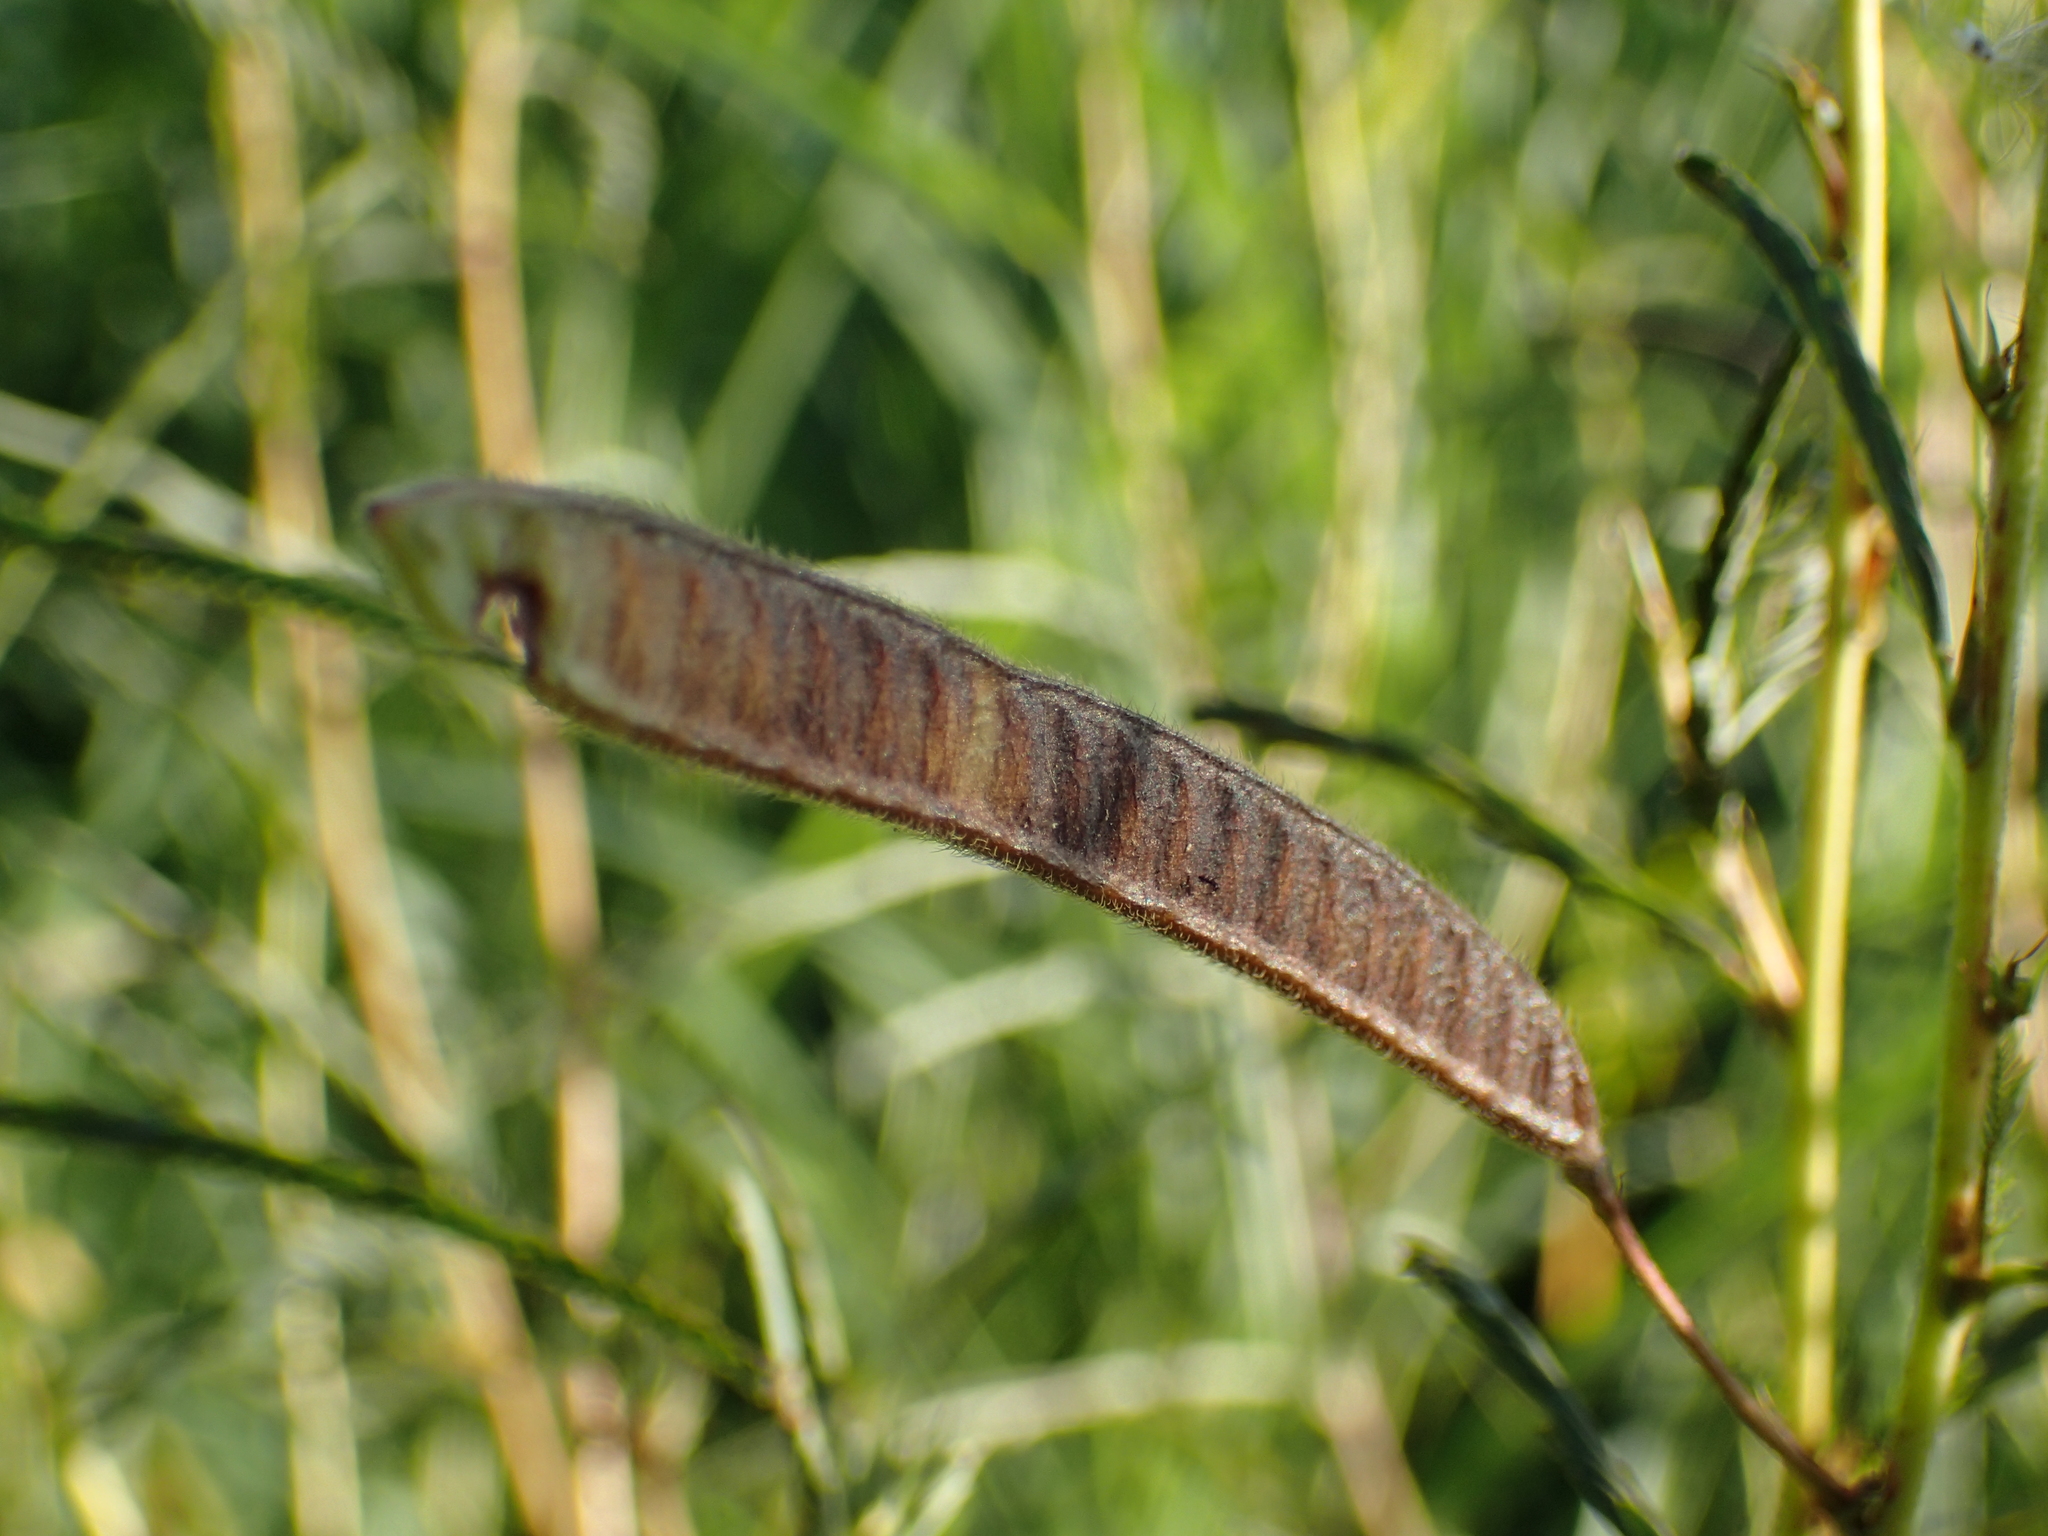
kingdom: Plantae
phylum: Tracheophyta
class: Magnoliopsida
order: Fabales
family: Fabaceae
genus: Chamaecrista
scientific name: Chamaecrista mimosoides
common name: Fish-bone cassia
